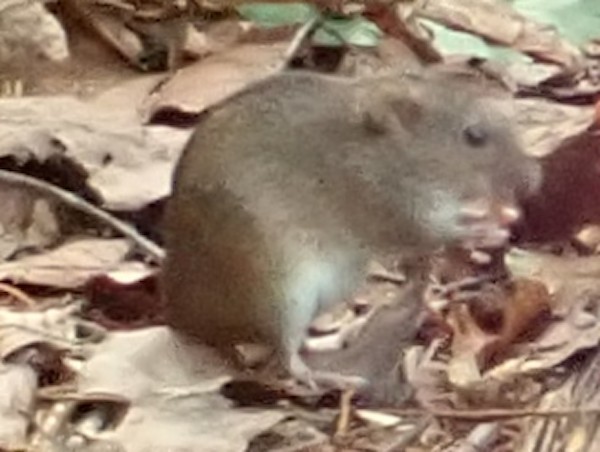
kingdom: Animalia
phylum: Chordata
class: Mammalia
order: Rodentia
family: Muridae
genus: Apodemus
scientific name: Apodemus agrarius
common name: Striped field mouse
